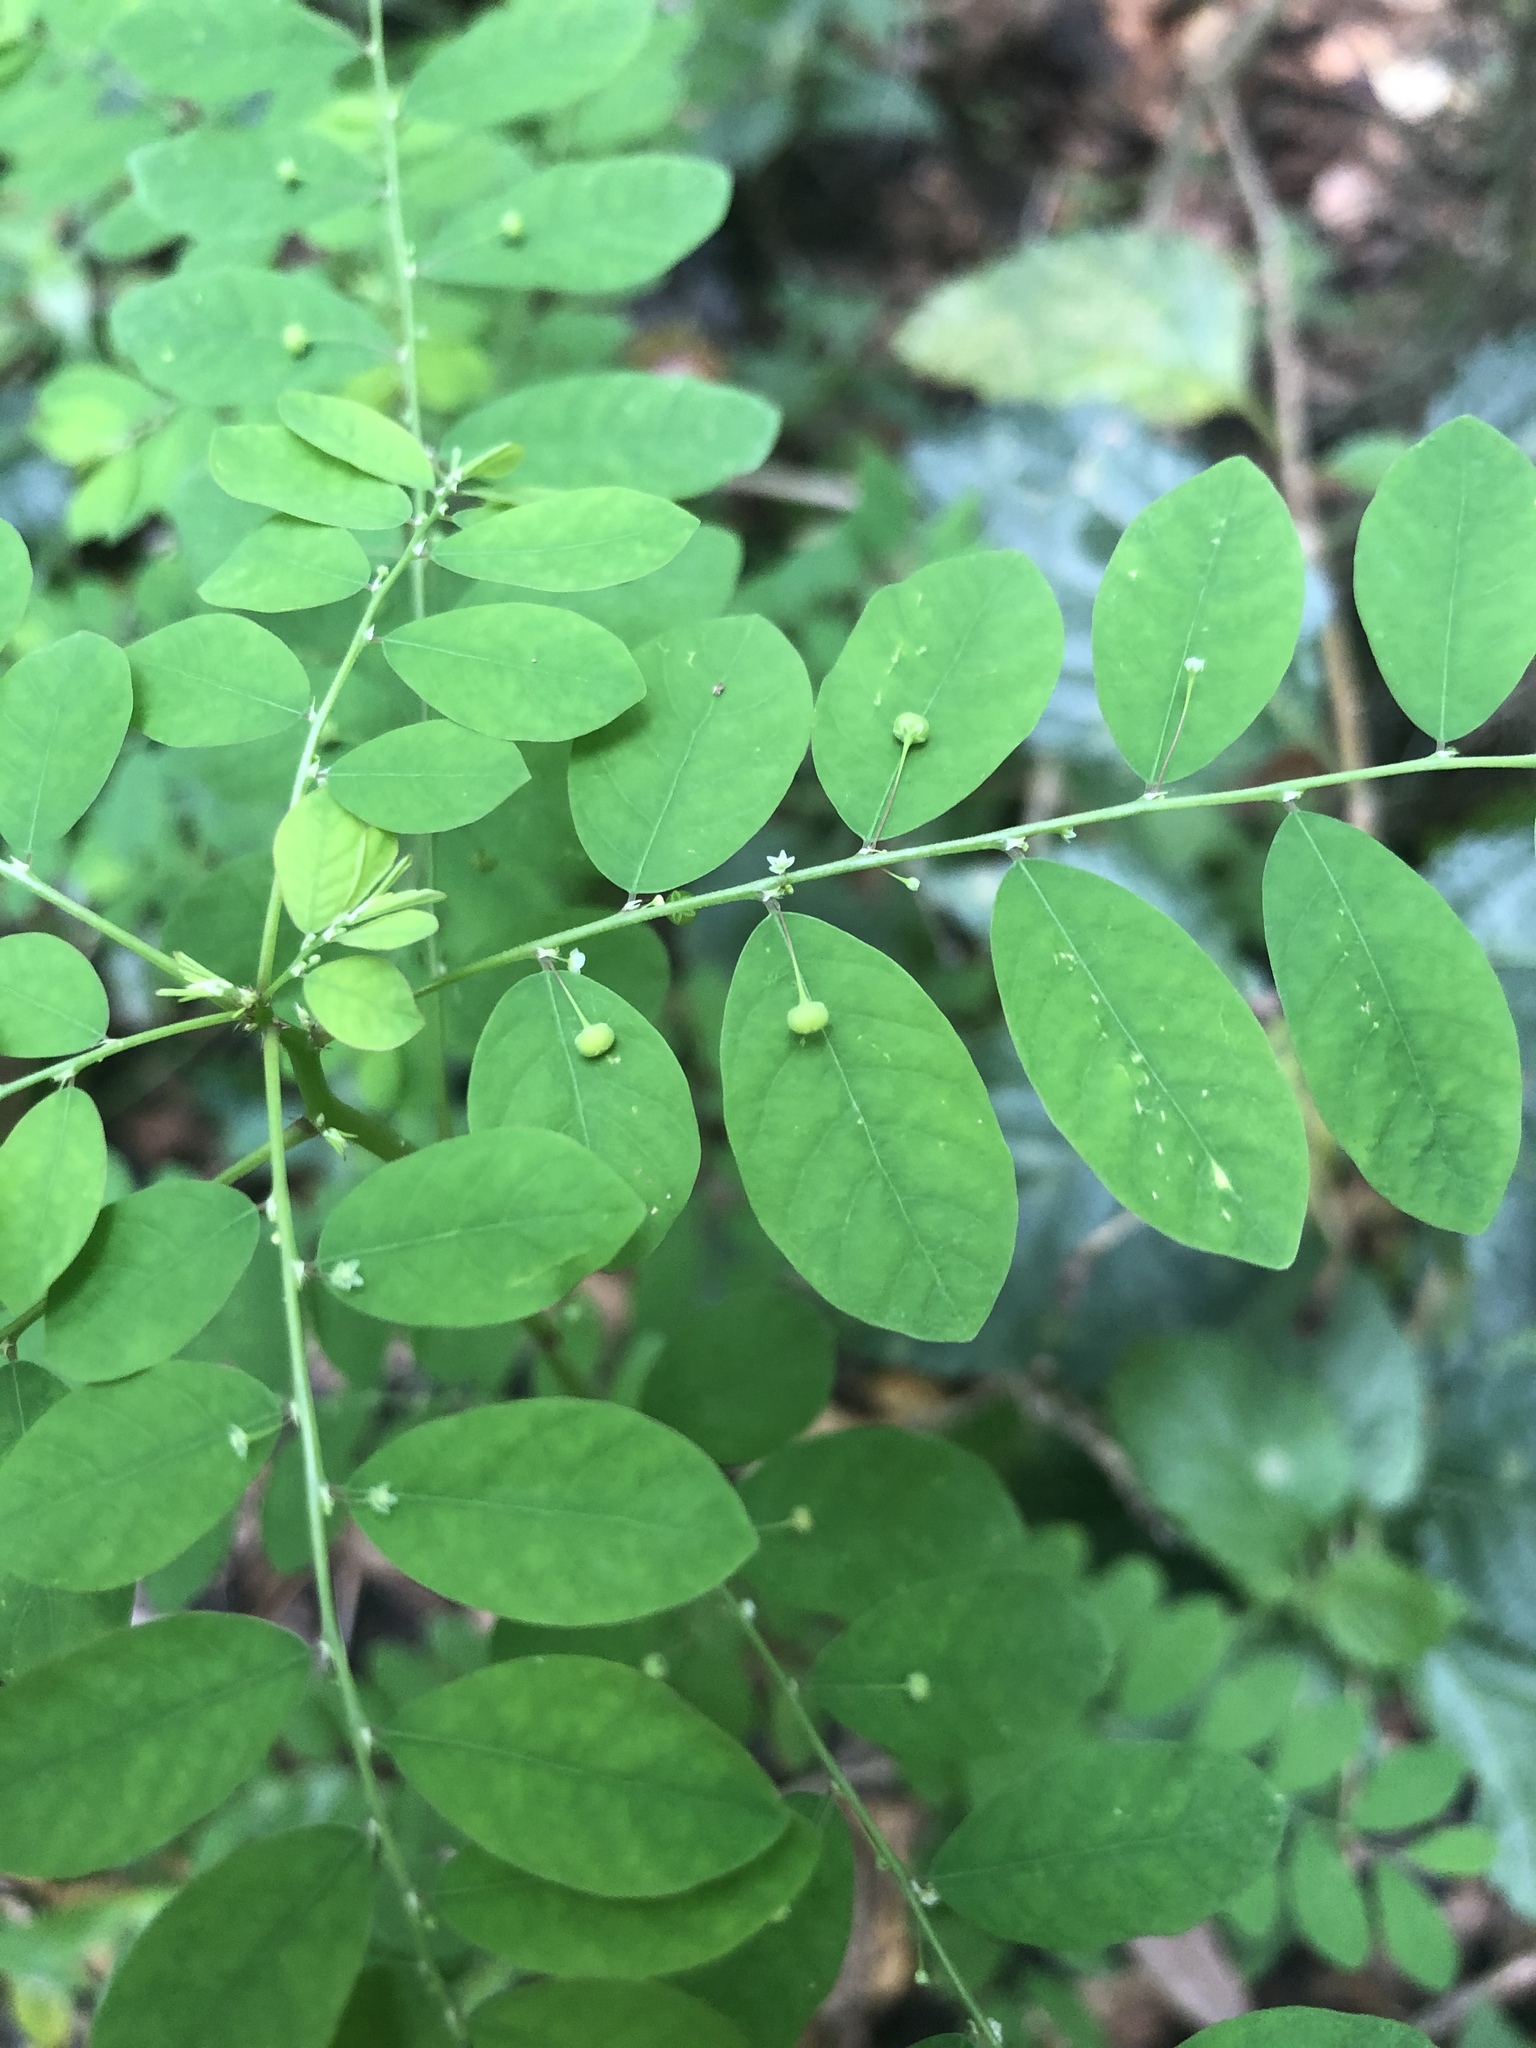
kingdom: Plantae
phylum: Tracheophyta
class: Magnoliopsida
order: Malpighiales
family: Phyllanthaceae
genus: Phyllanthus
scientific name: Phyllanthus tenellus
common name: Mascarene island leaf-flower
